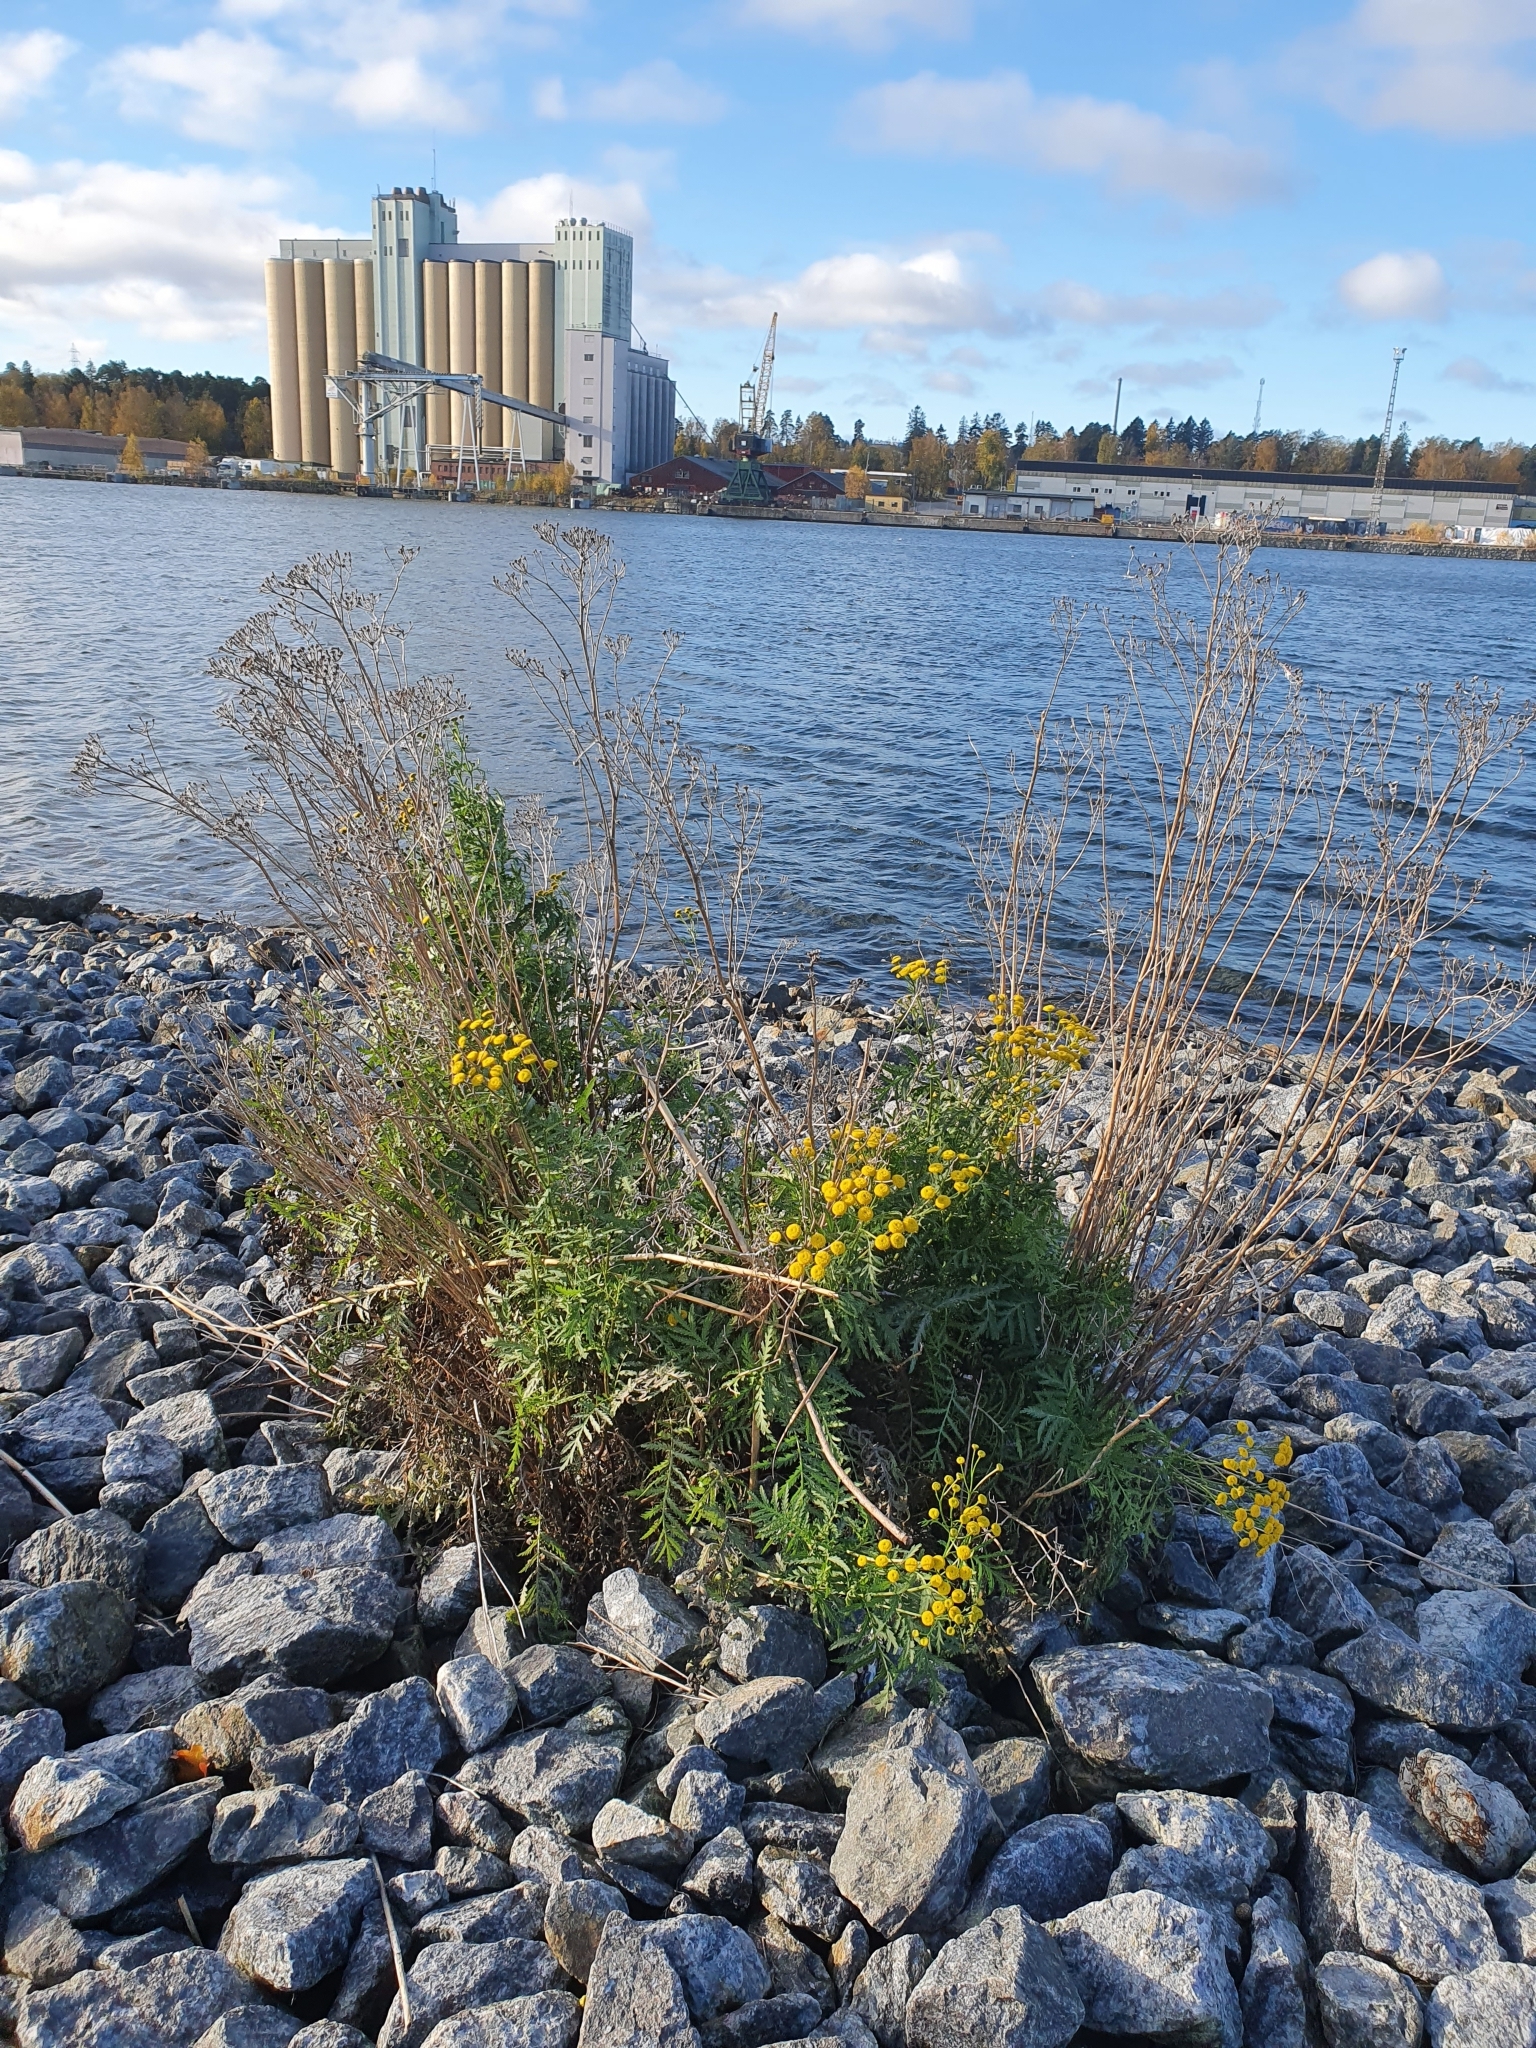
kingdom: Plantae
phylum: Tracheophyta
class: Magnoliopsida
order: Asterales
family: Asteraceae
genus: Tanacetum
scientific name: Tanacetum vulgare
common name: Common tansy
